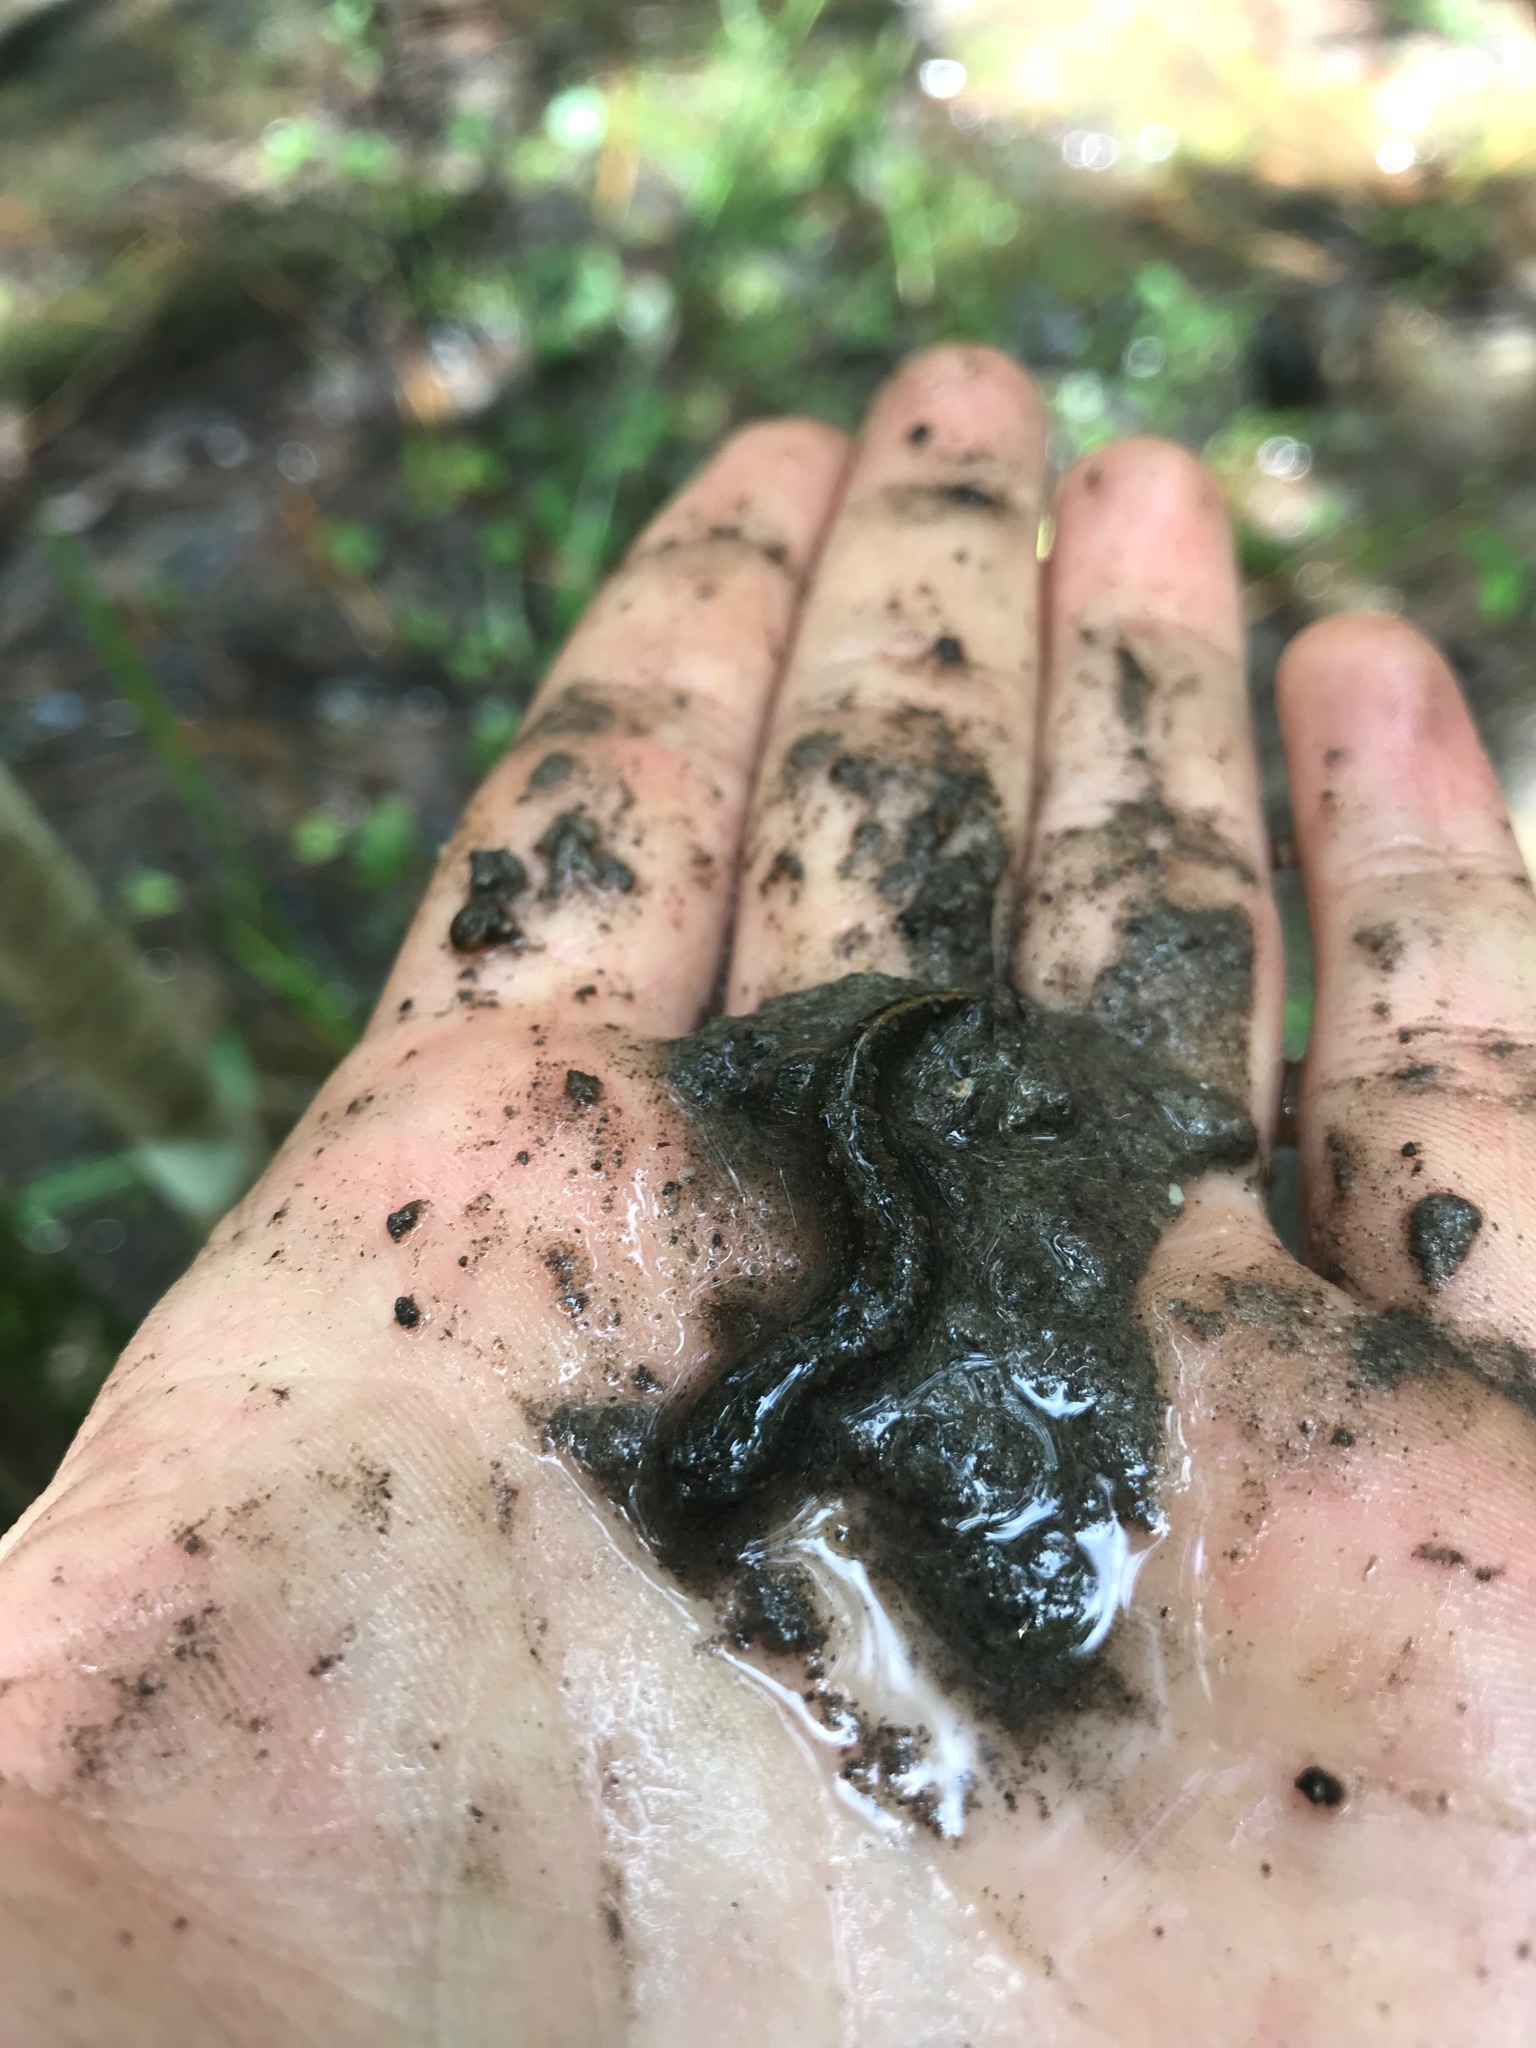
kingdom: Animalia
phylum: Chordata
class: Amphibia
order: Caudata
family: Plethodontidae
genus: Desmognathus
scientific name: Desmognathus valentinei
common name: Valentine's southern dusky salamander
